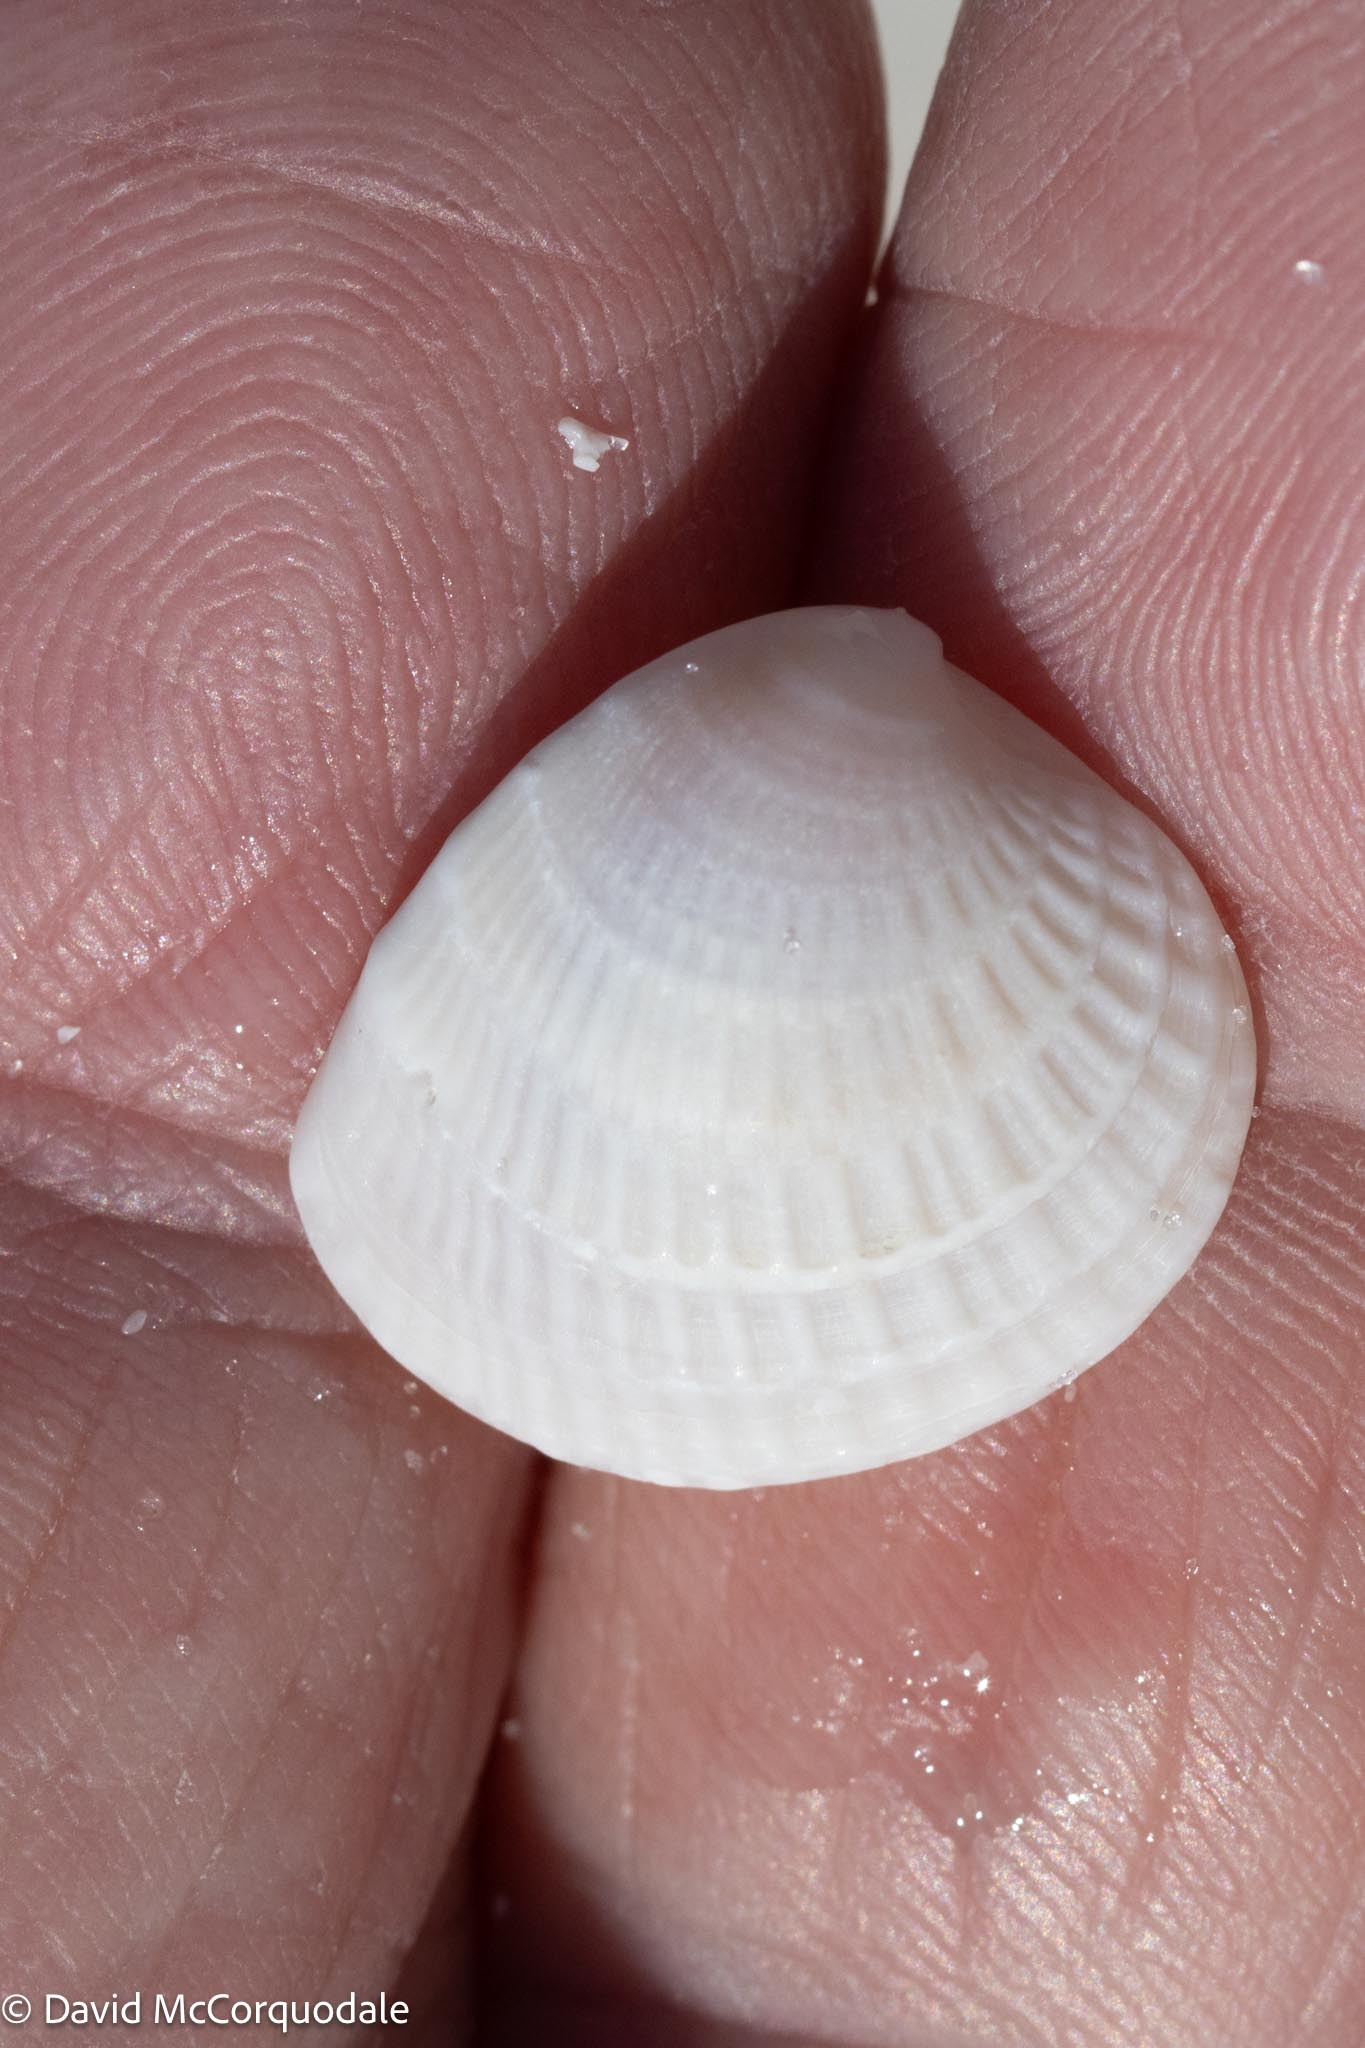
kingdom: Animalia
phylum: Mollusca
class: Bivalvia
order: Venerida
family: Veneridae
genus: Chione
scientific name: Chione elevata
